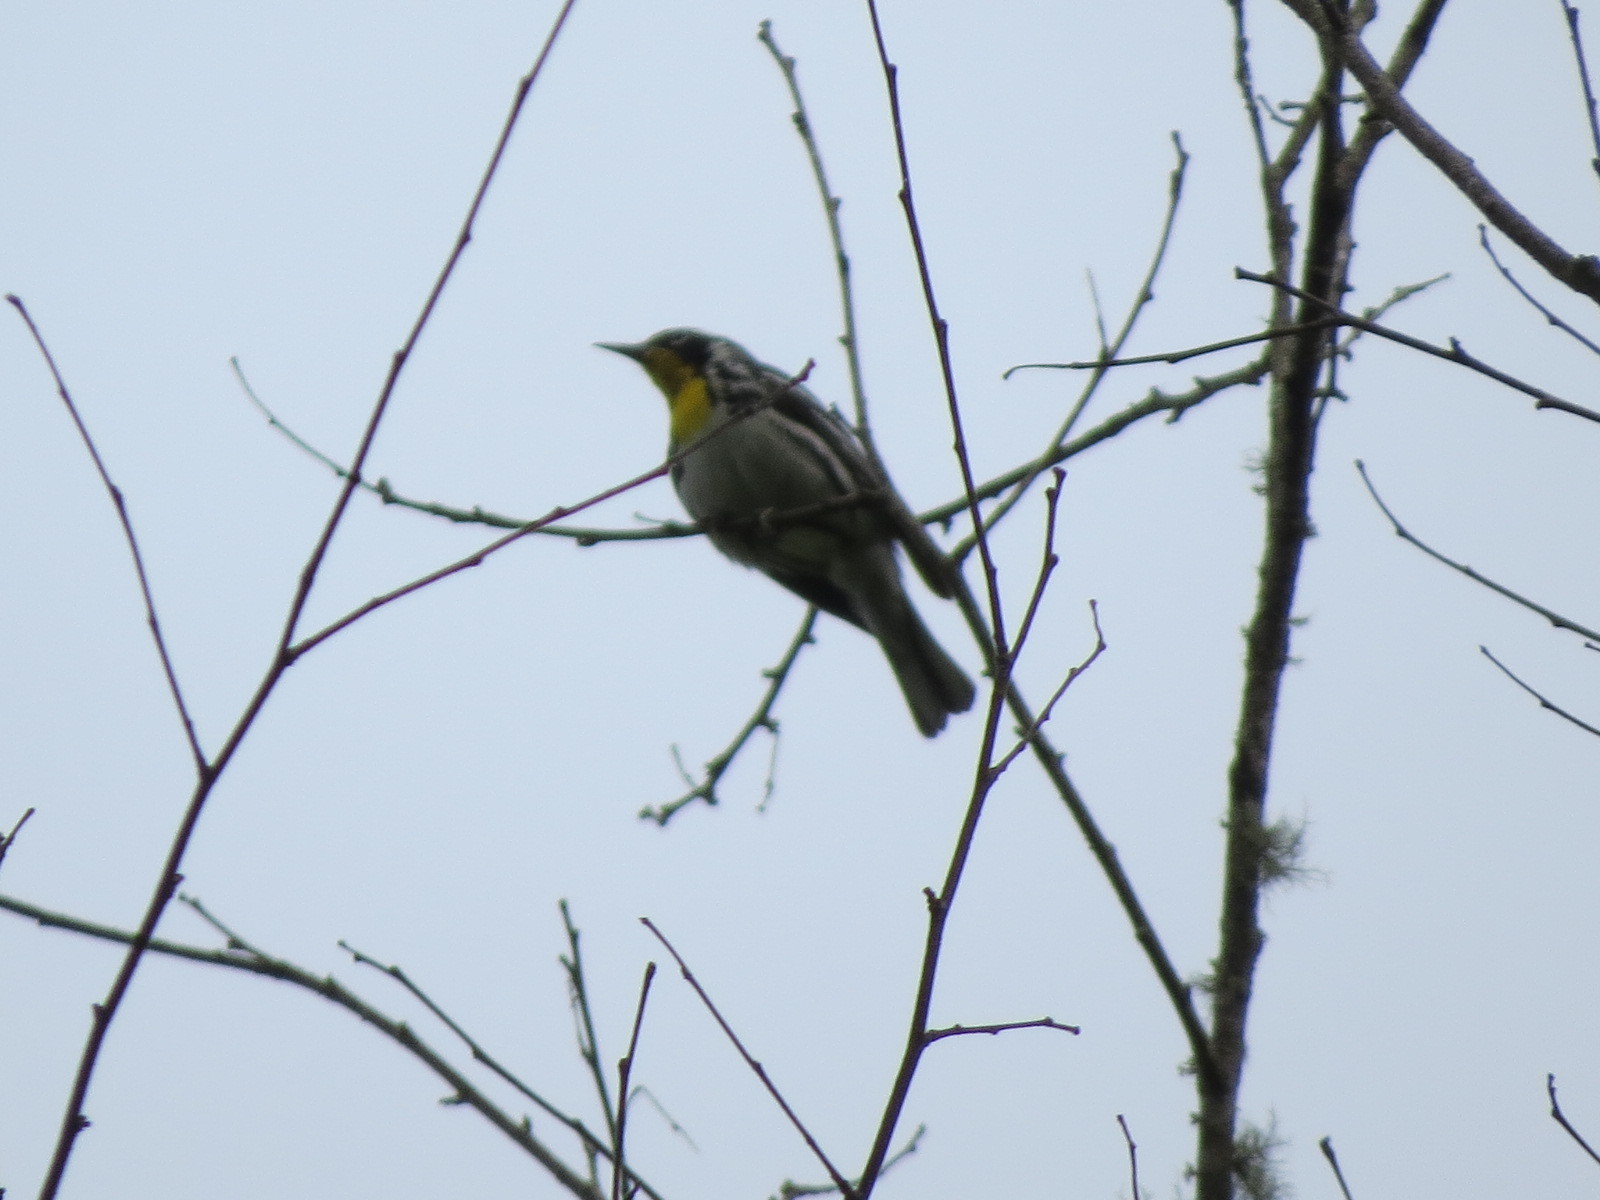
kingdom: Animalia
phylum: Chordata
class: Aves
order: Passeriformes
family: Parulidae
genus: Setophaga
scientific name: Setophaga dominica
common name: Yellow-throated warbler
